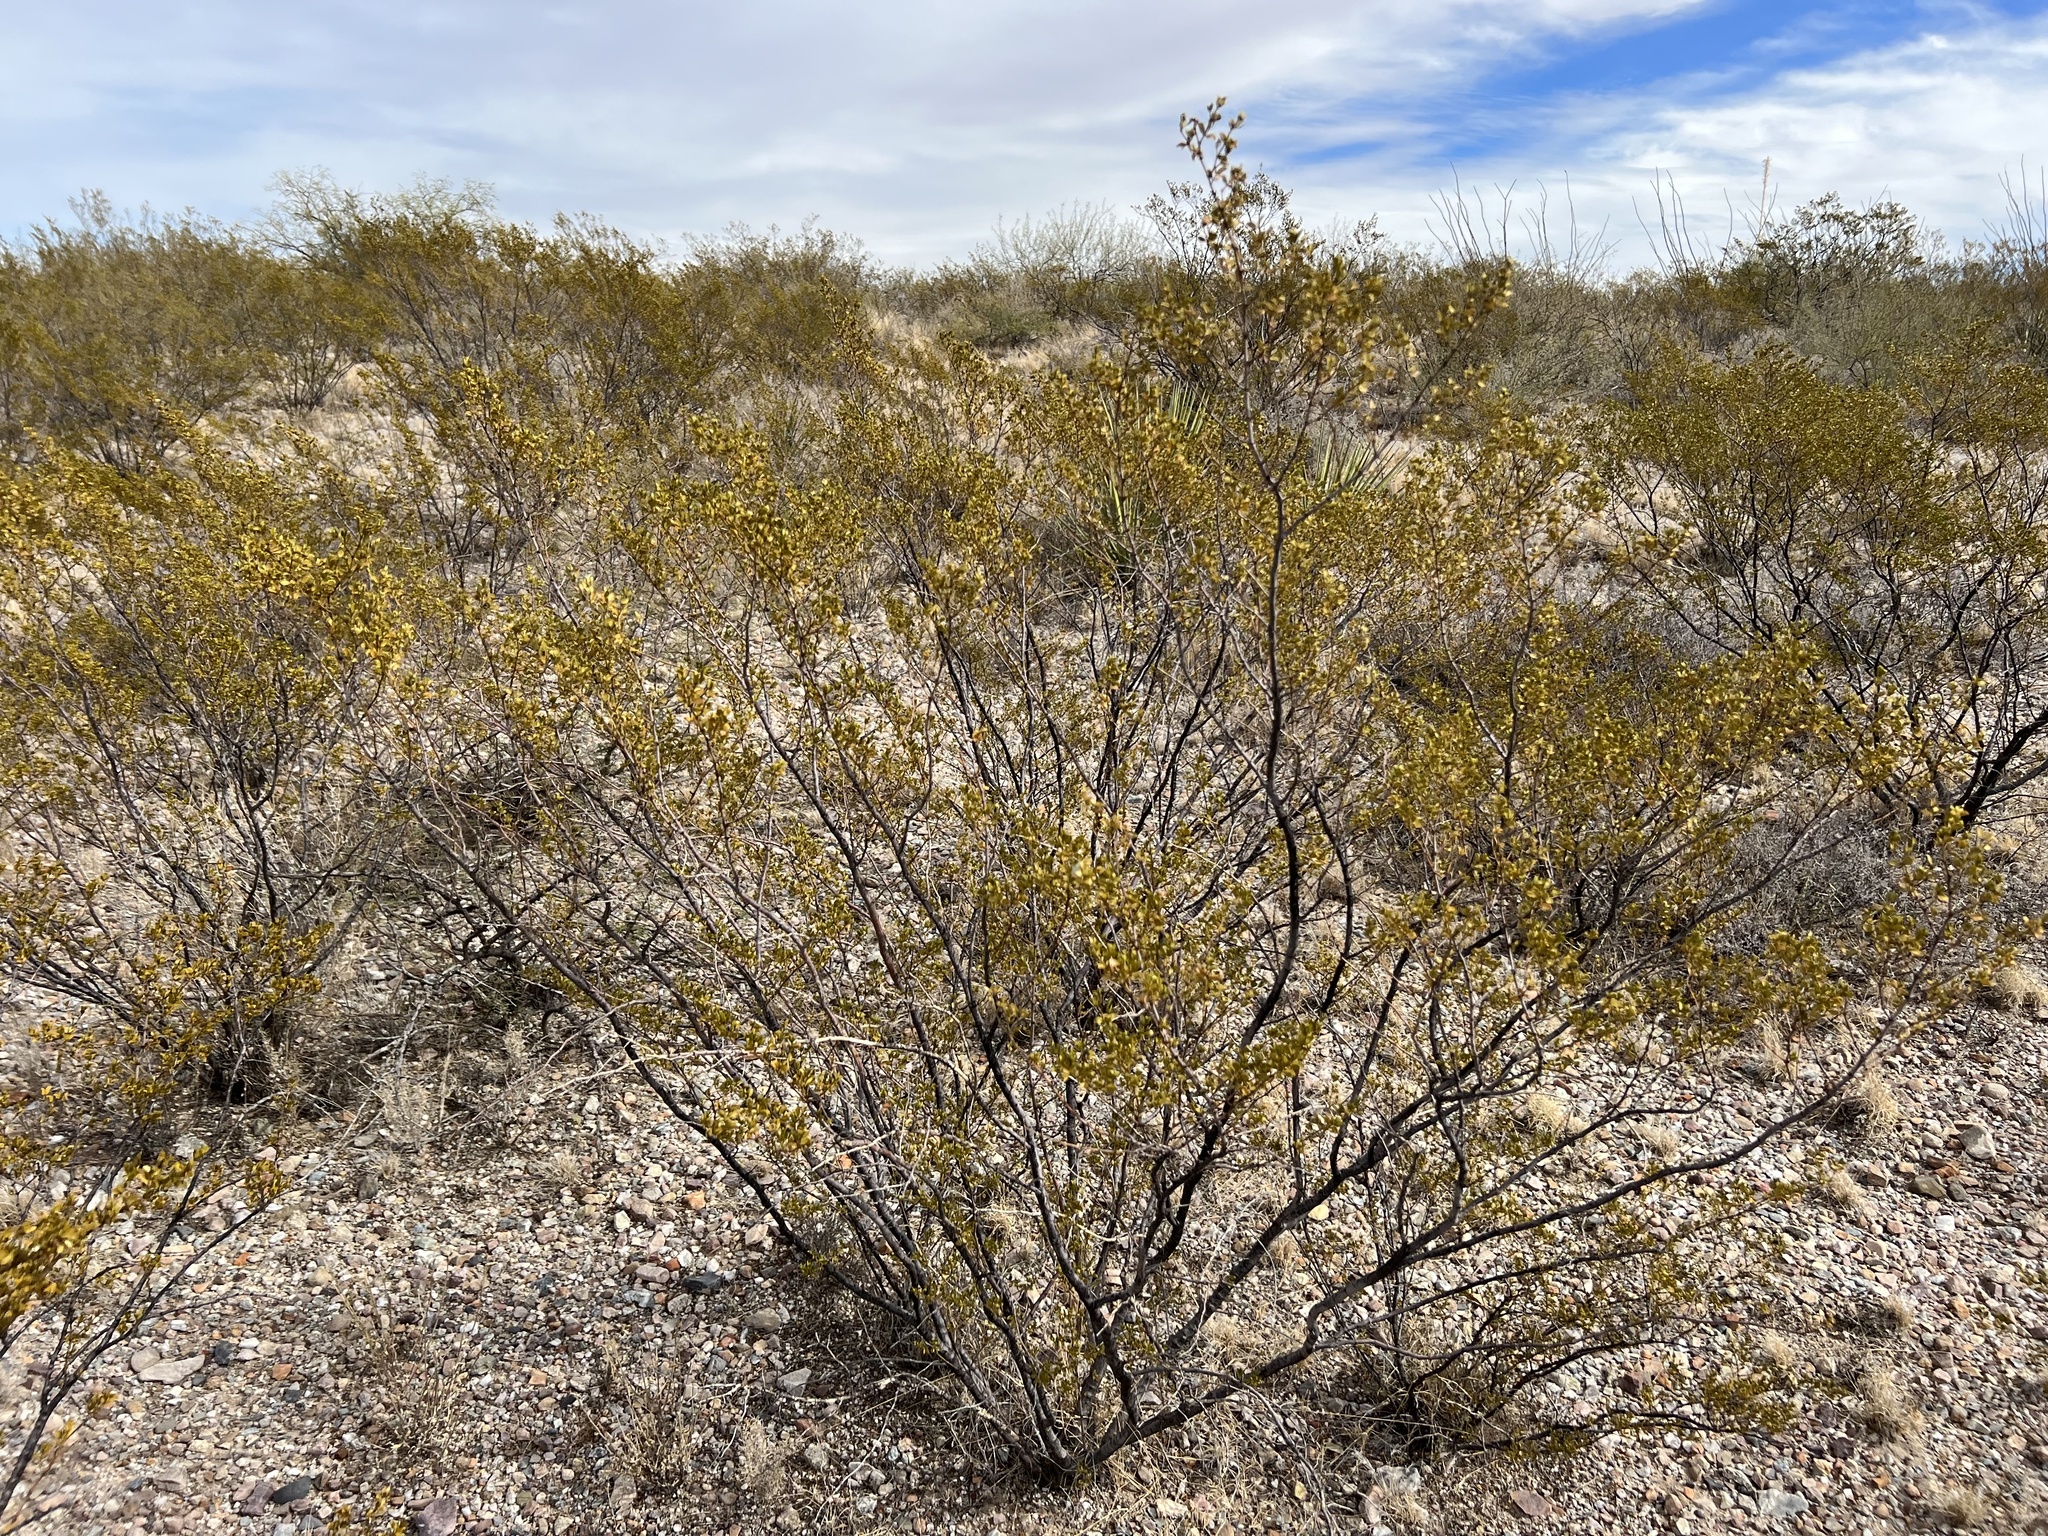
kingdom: Plantae
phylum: Tracheophyta
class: Magnoliopsida
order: Zygophyllales
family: Zygophyllaceae
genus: Larrea
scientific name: Larrea tridentata
